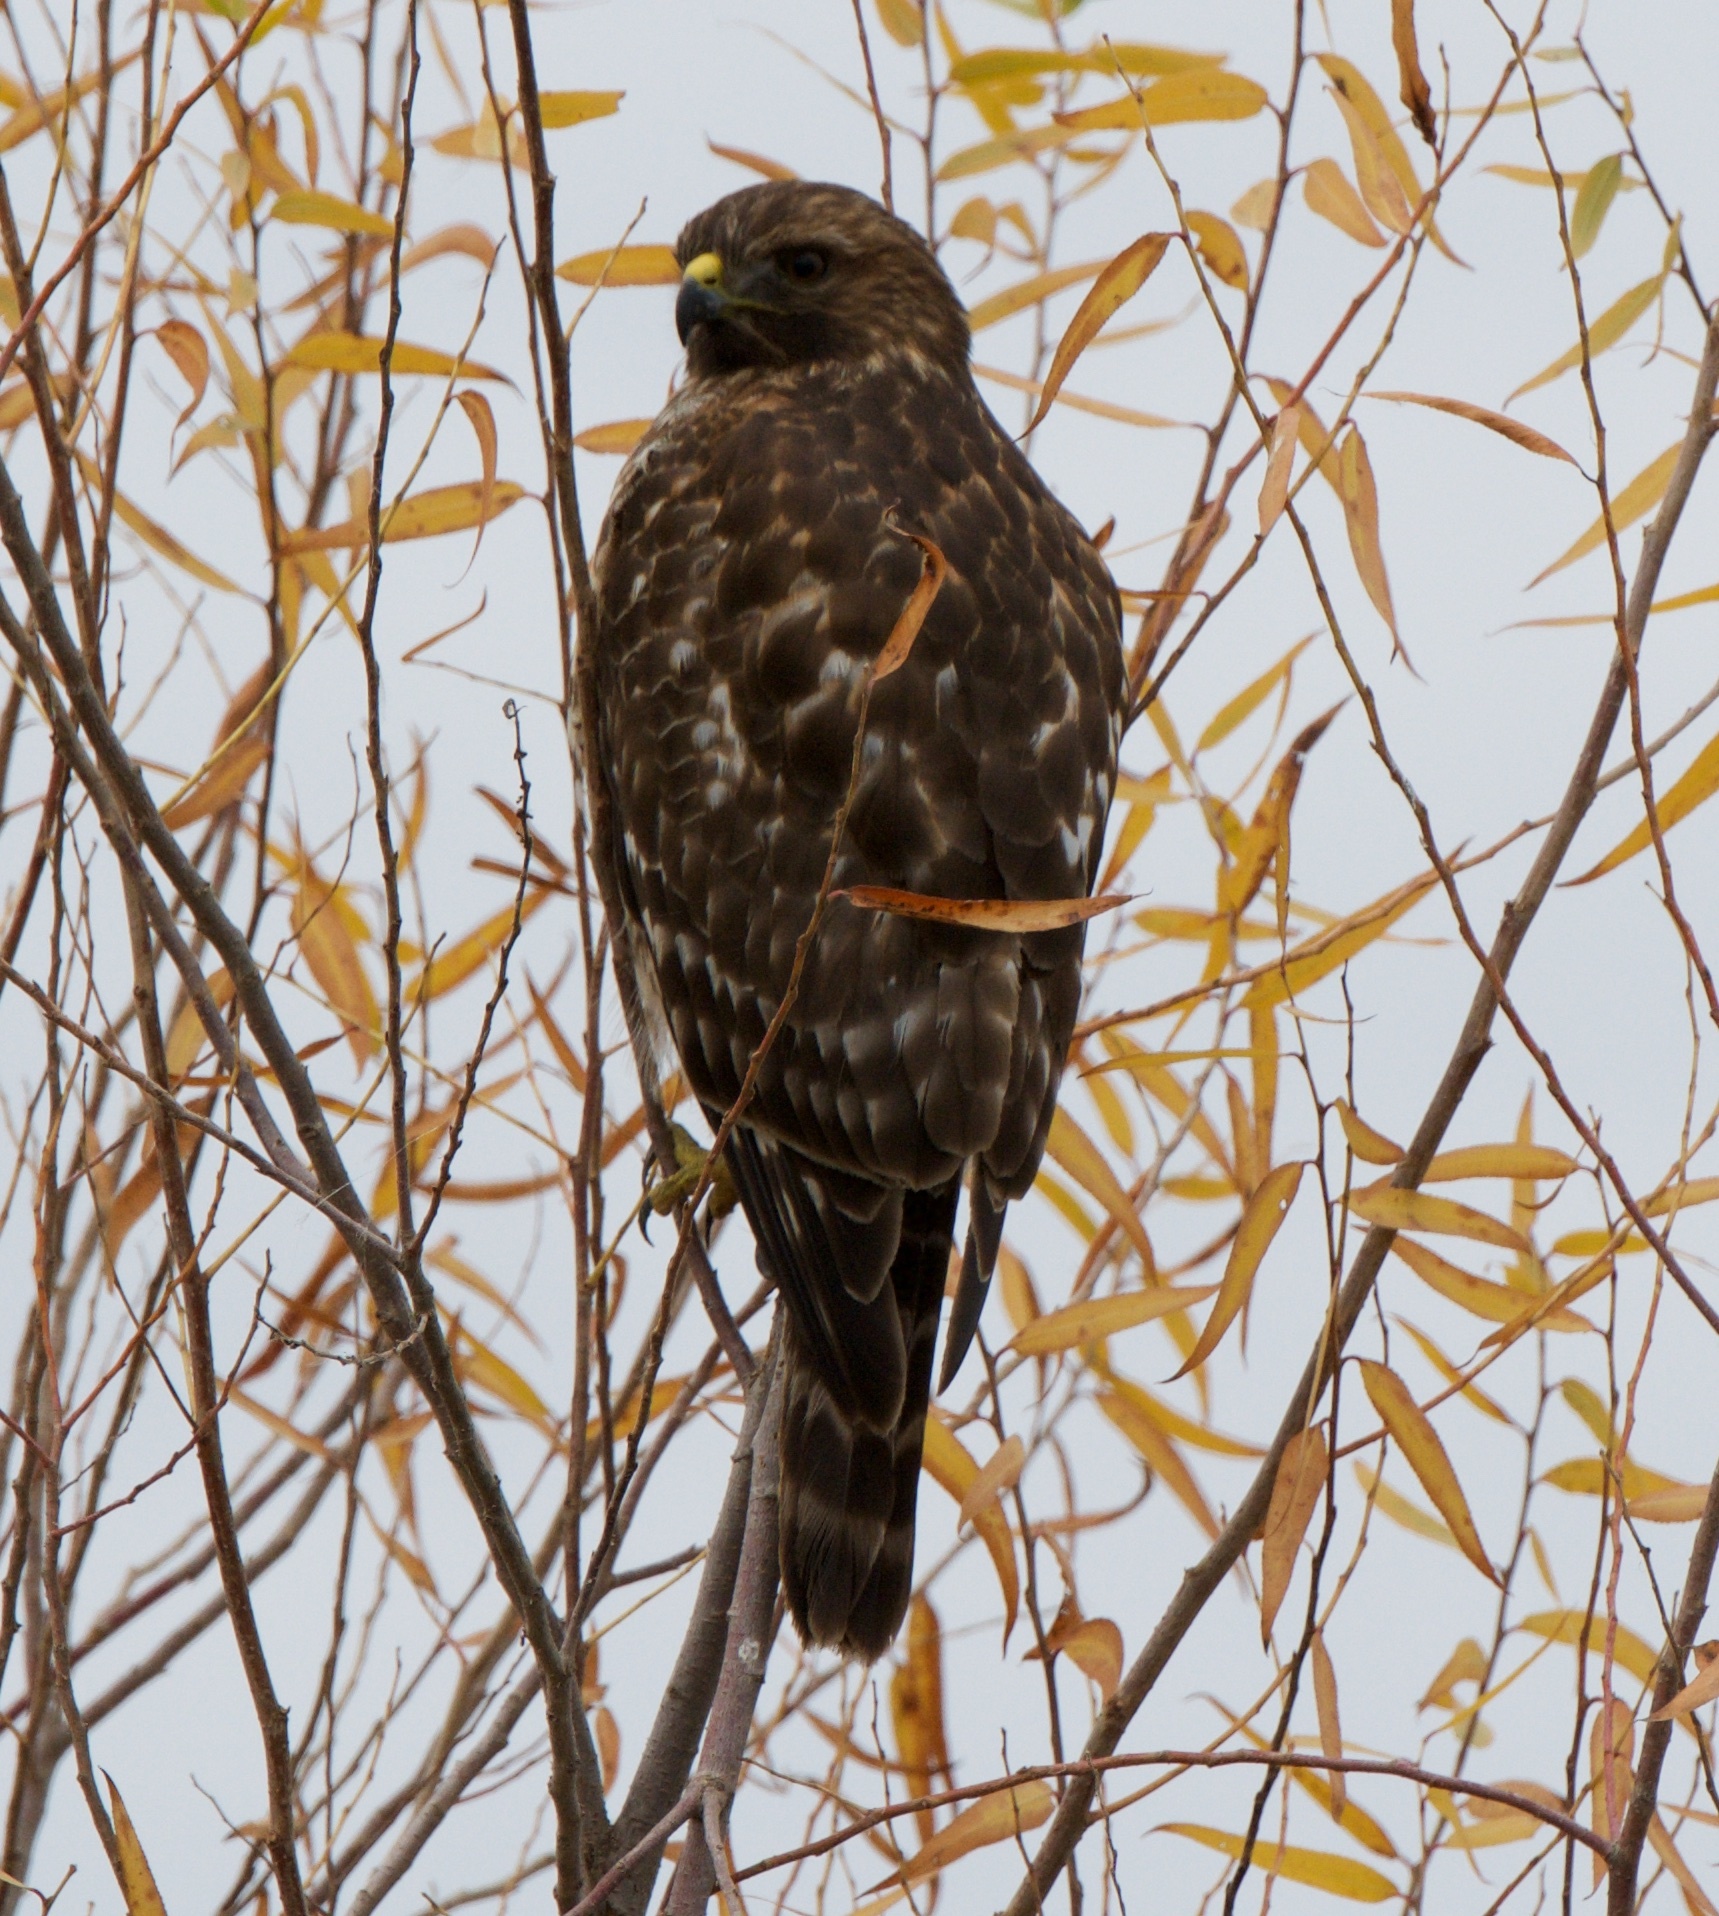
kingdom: Animalia
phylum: Chordata
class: Aves
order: Accipitriformes
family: Accipitridae
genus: Buteo
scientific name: Buteo lineatus
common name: Red-shouldered hawk
